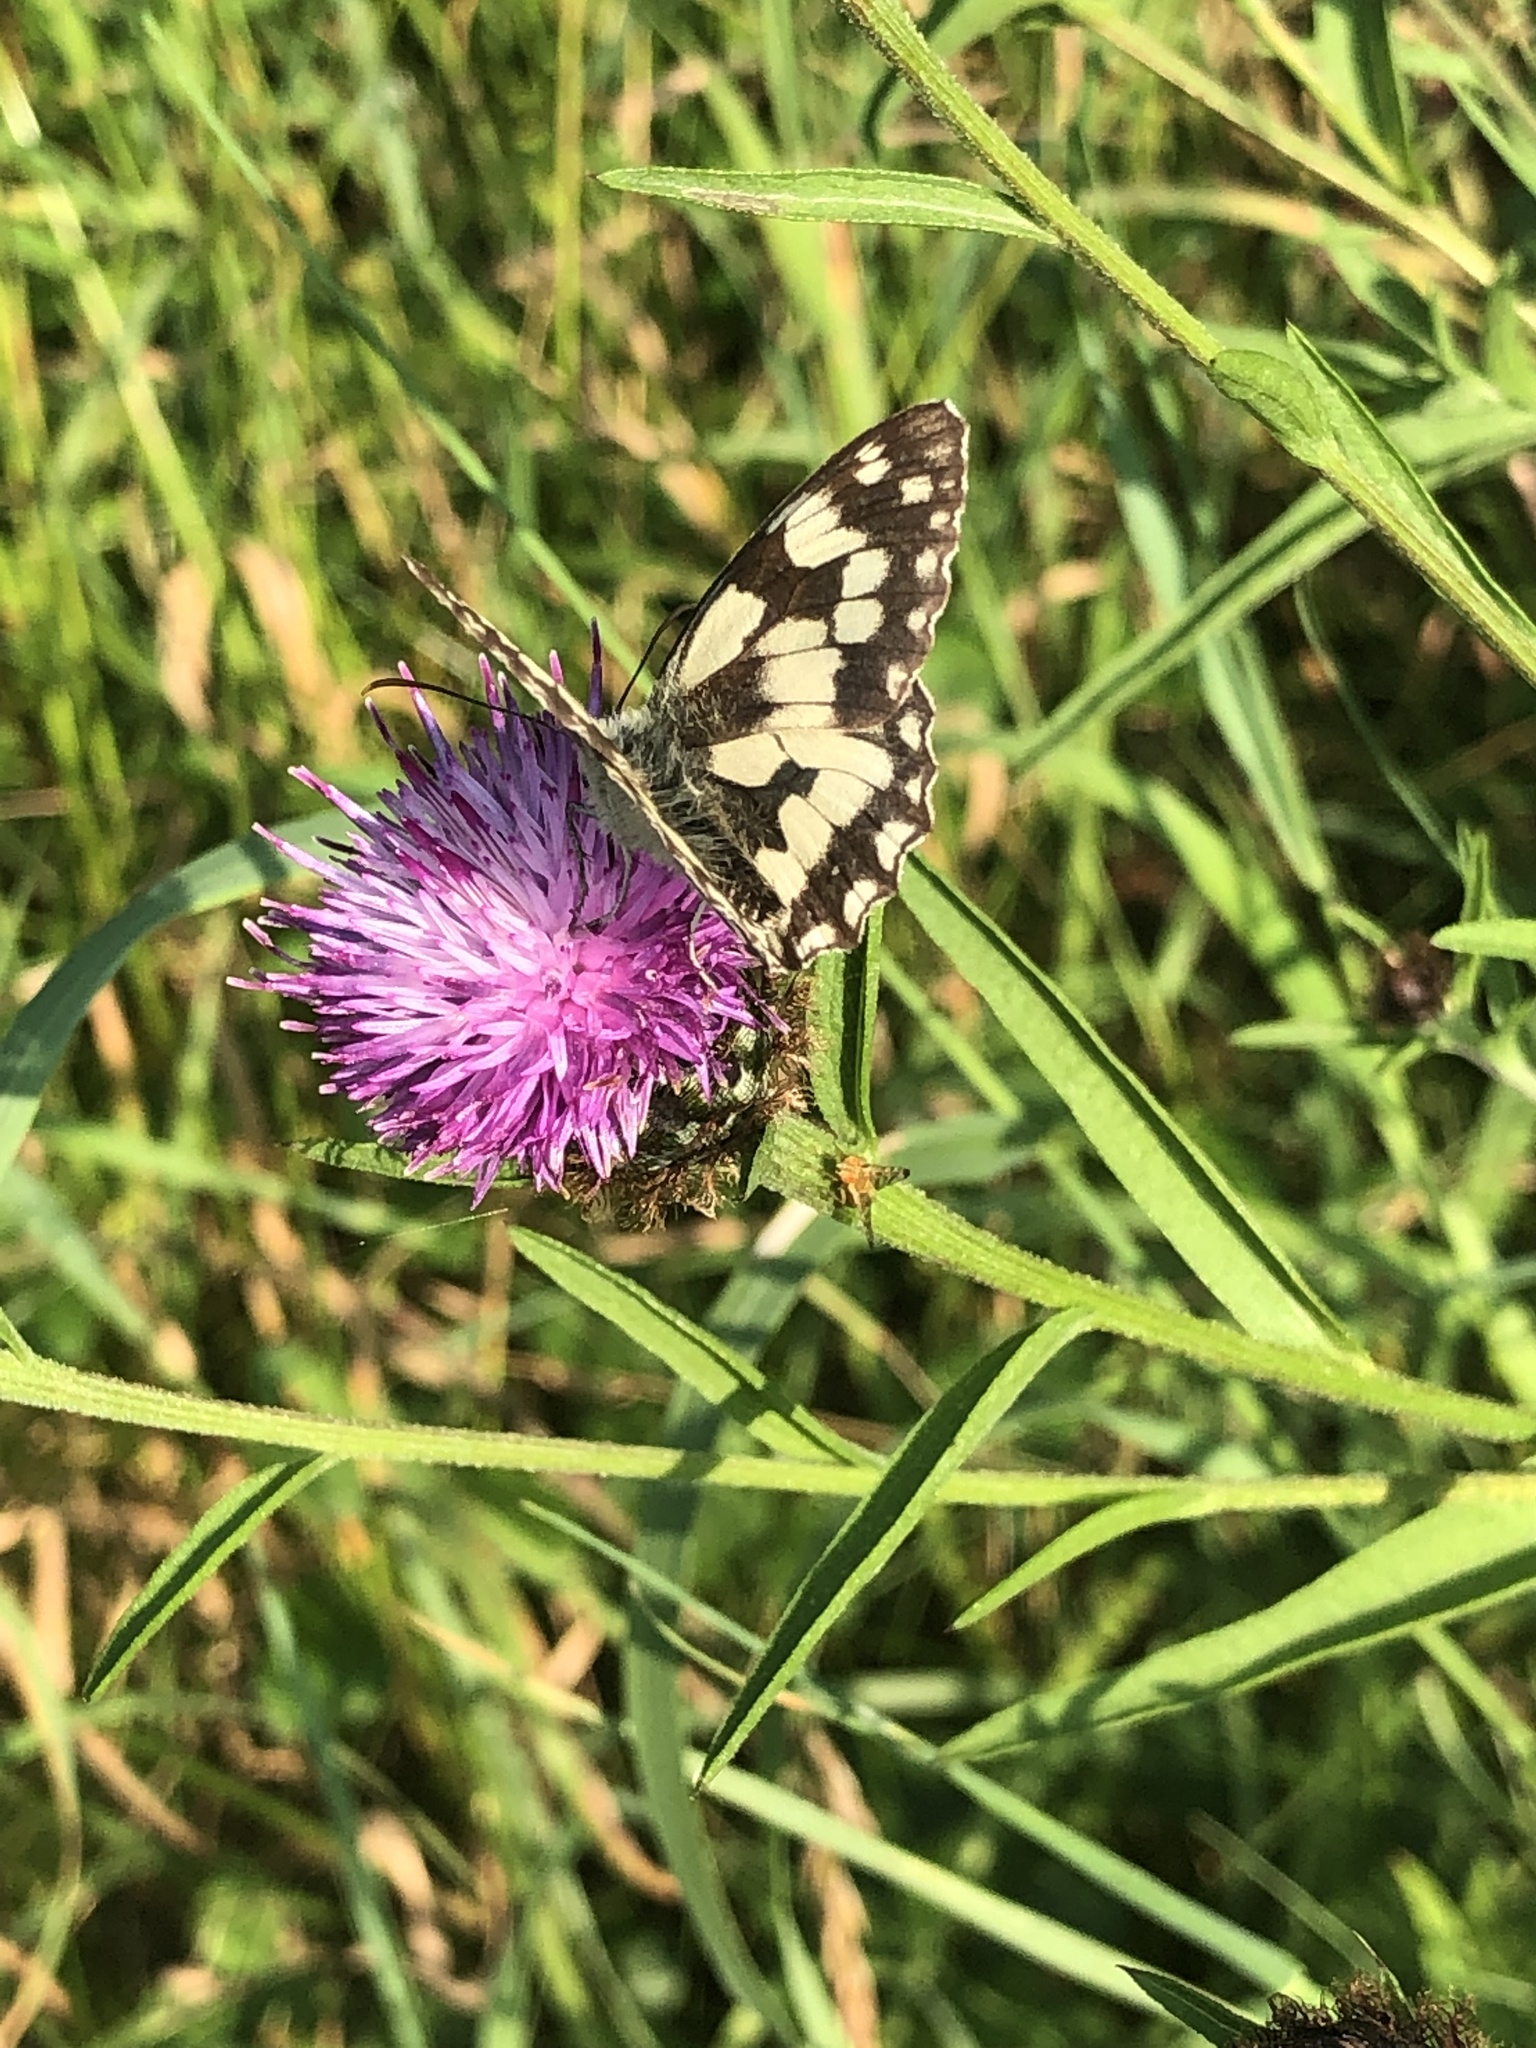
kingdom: Animalia
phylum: Arthropoda
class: Insecta
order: Lepidoptera
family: Nymphalidae
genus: Melanargia
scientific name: Melanargia galathea
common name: Marbled white
